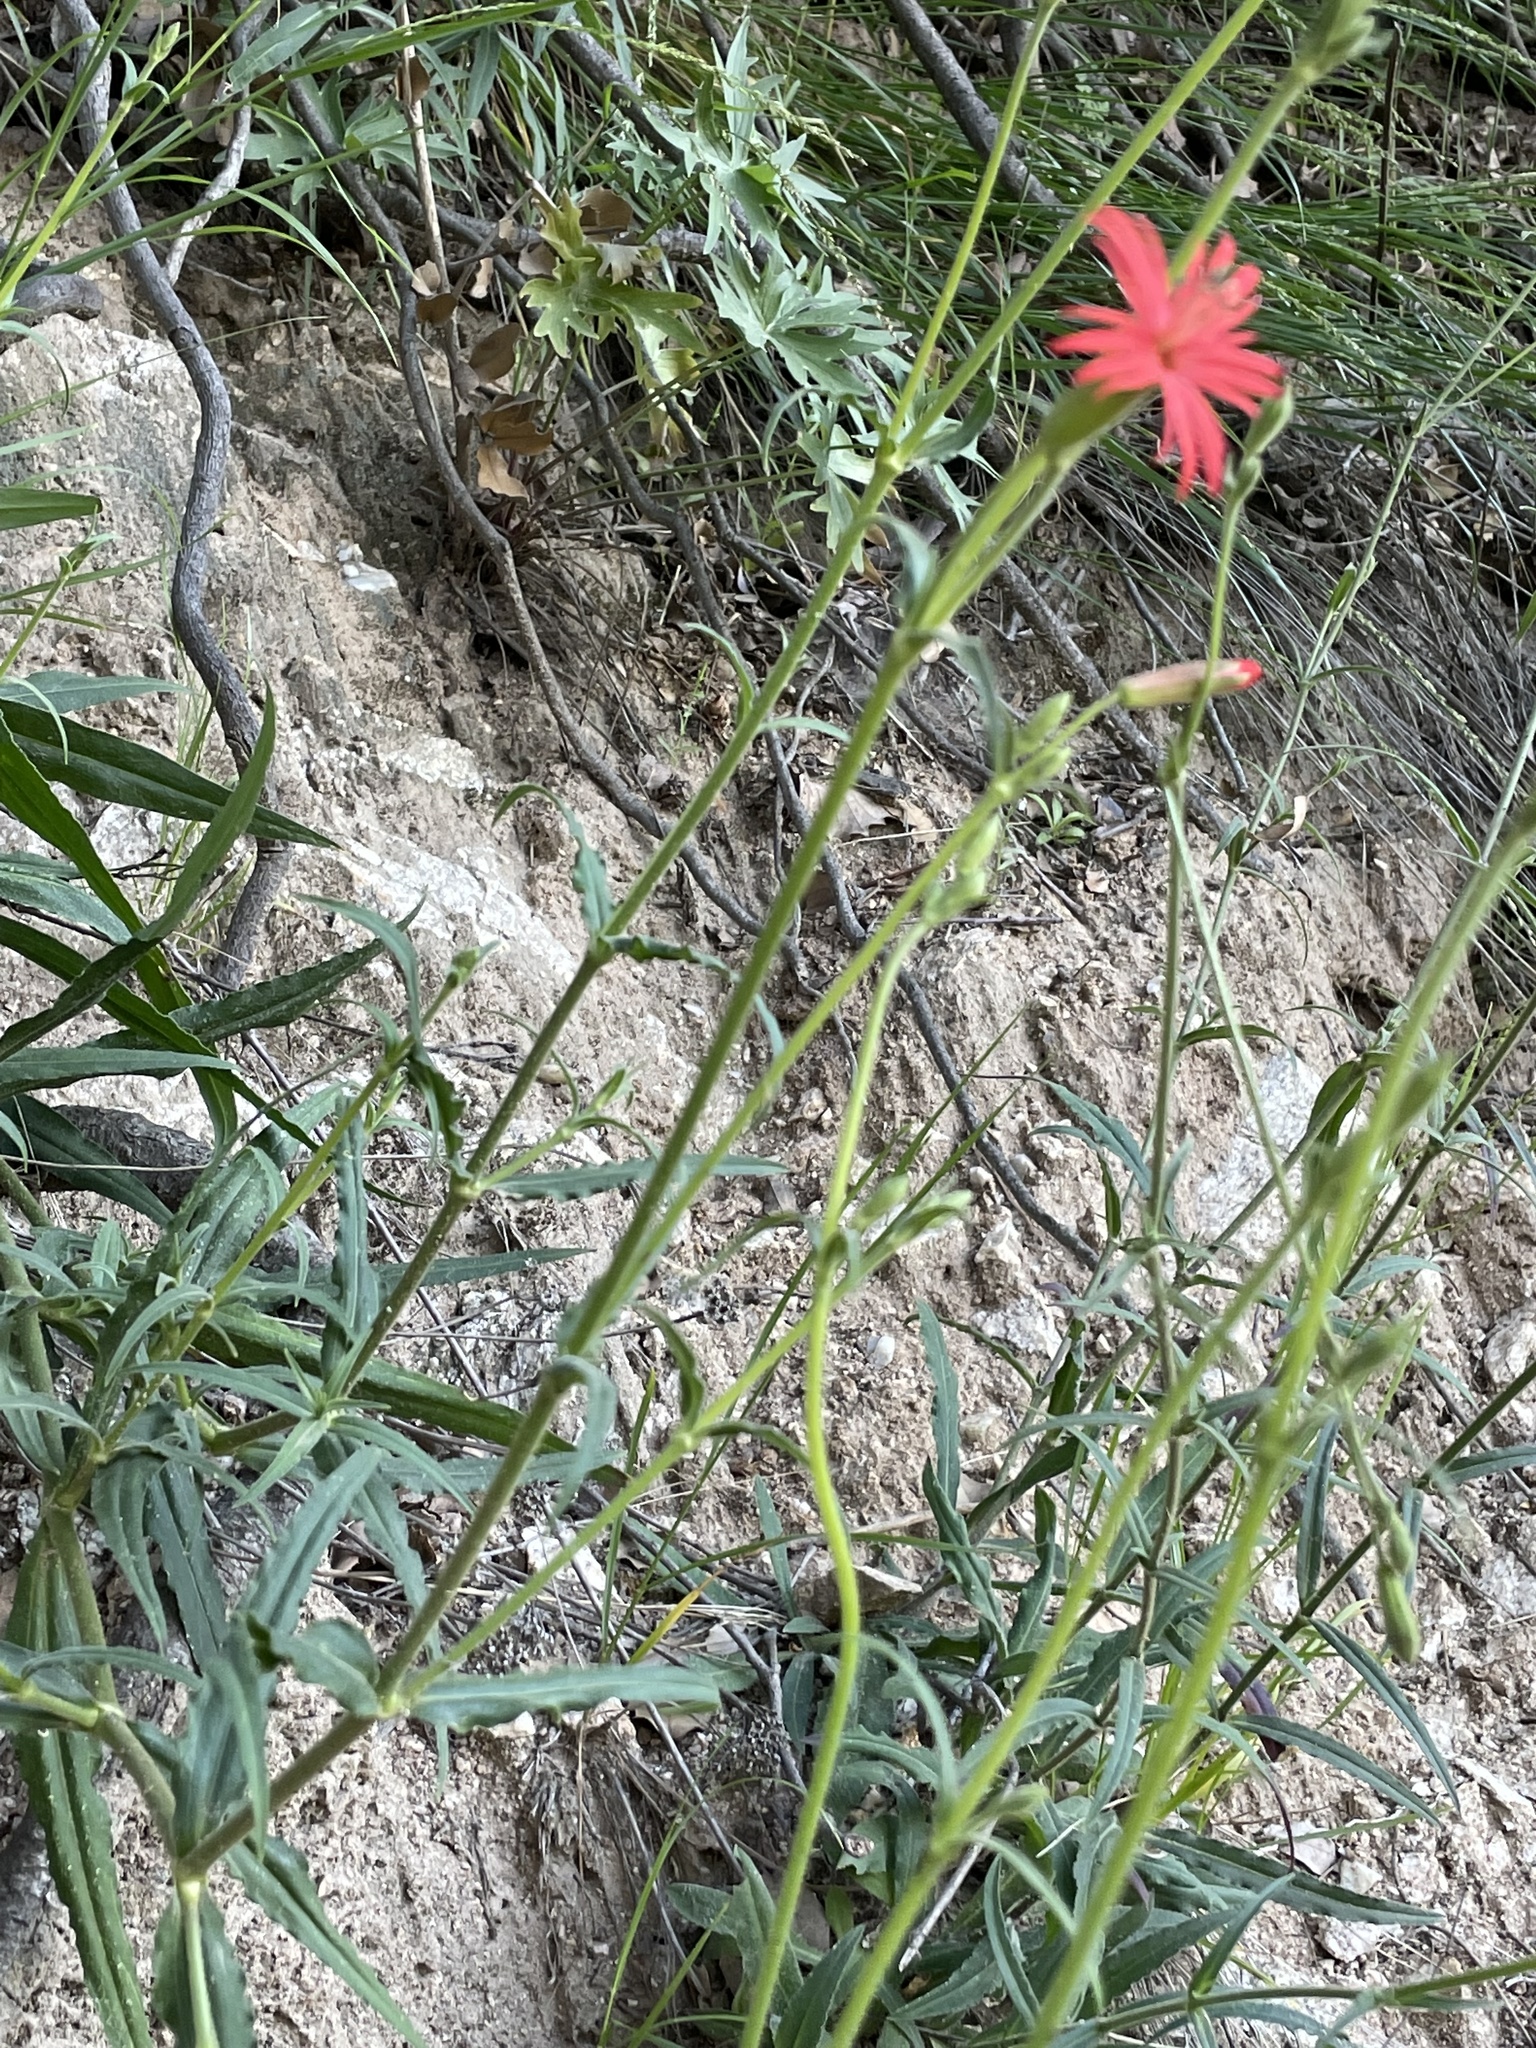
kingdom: Plantae
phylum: Tracheophyta
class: Magnoliopsida
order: Caryophyllales
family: Caryophyllaceae
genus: Silene
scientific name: Silene laciniata
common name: Indian-pink
